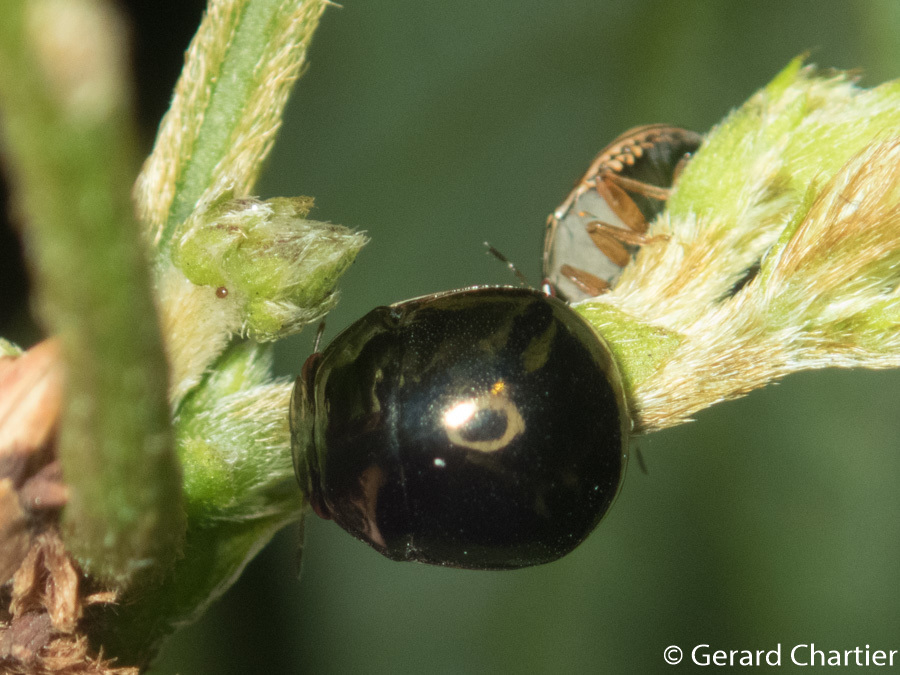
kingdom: Animalia
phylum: Arthropoda
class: Insecta
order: Hemiptera
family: Plataspidae
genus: Brachyplatys
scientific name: Brachyplatys subaeneus
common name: Black bean bug
